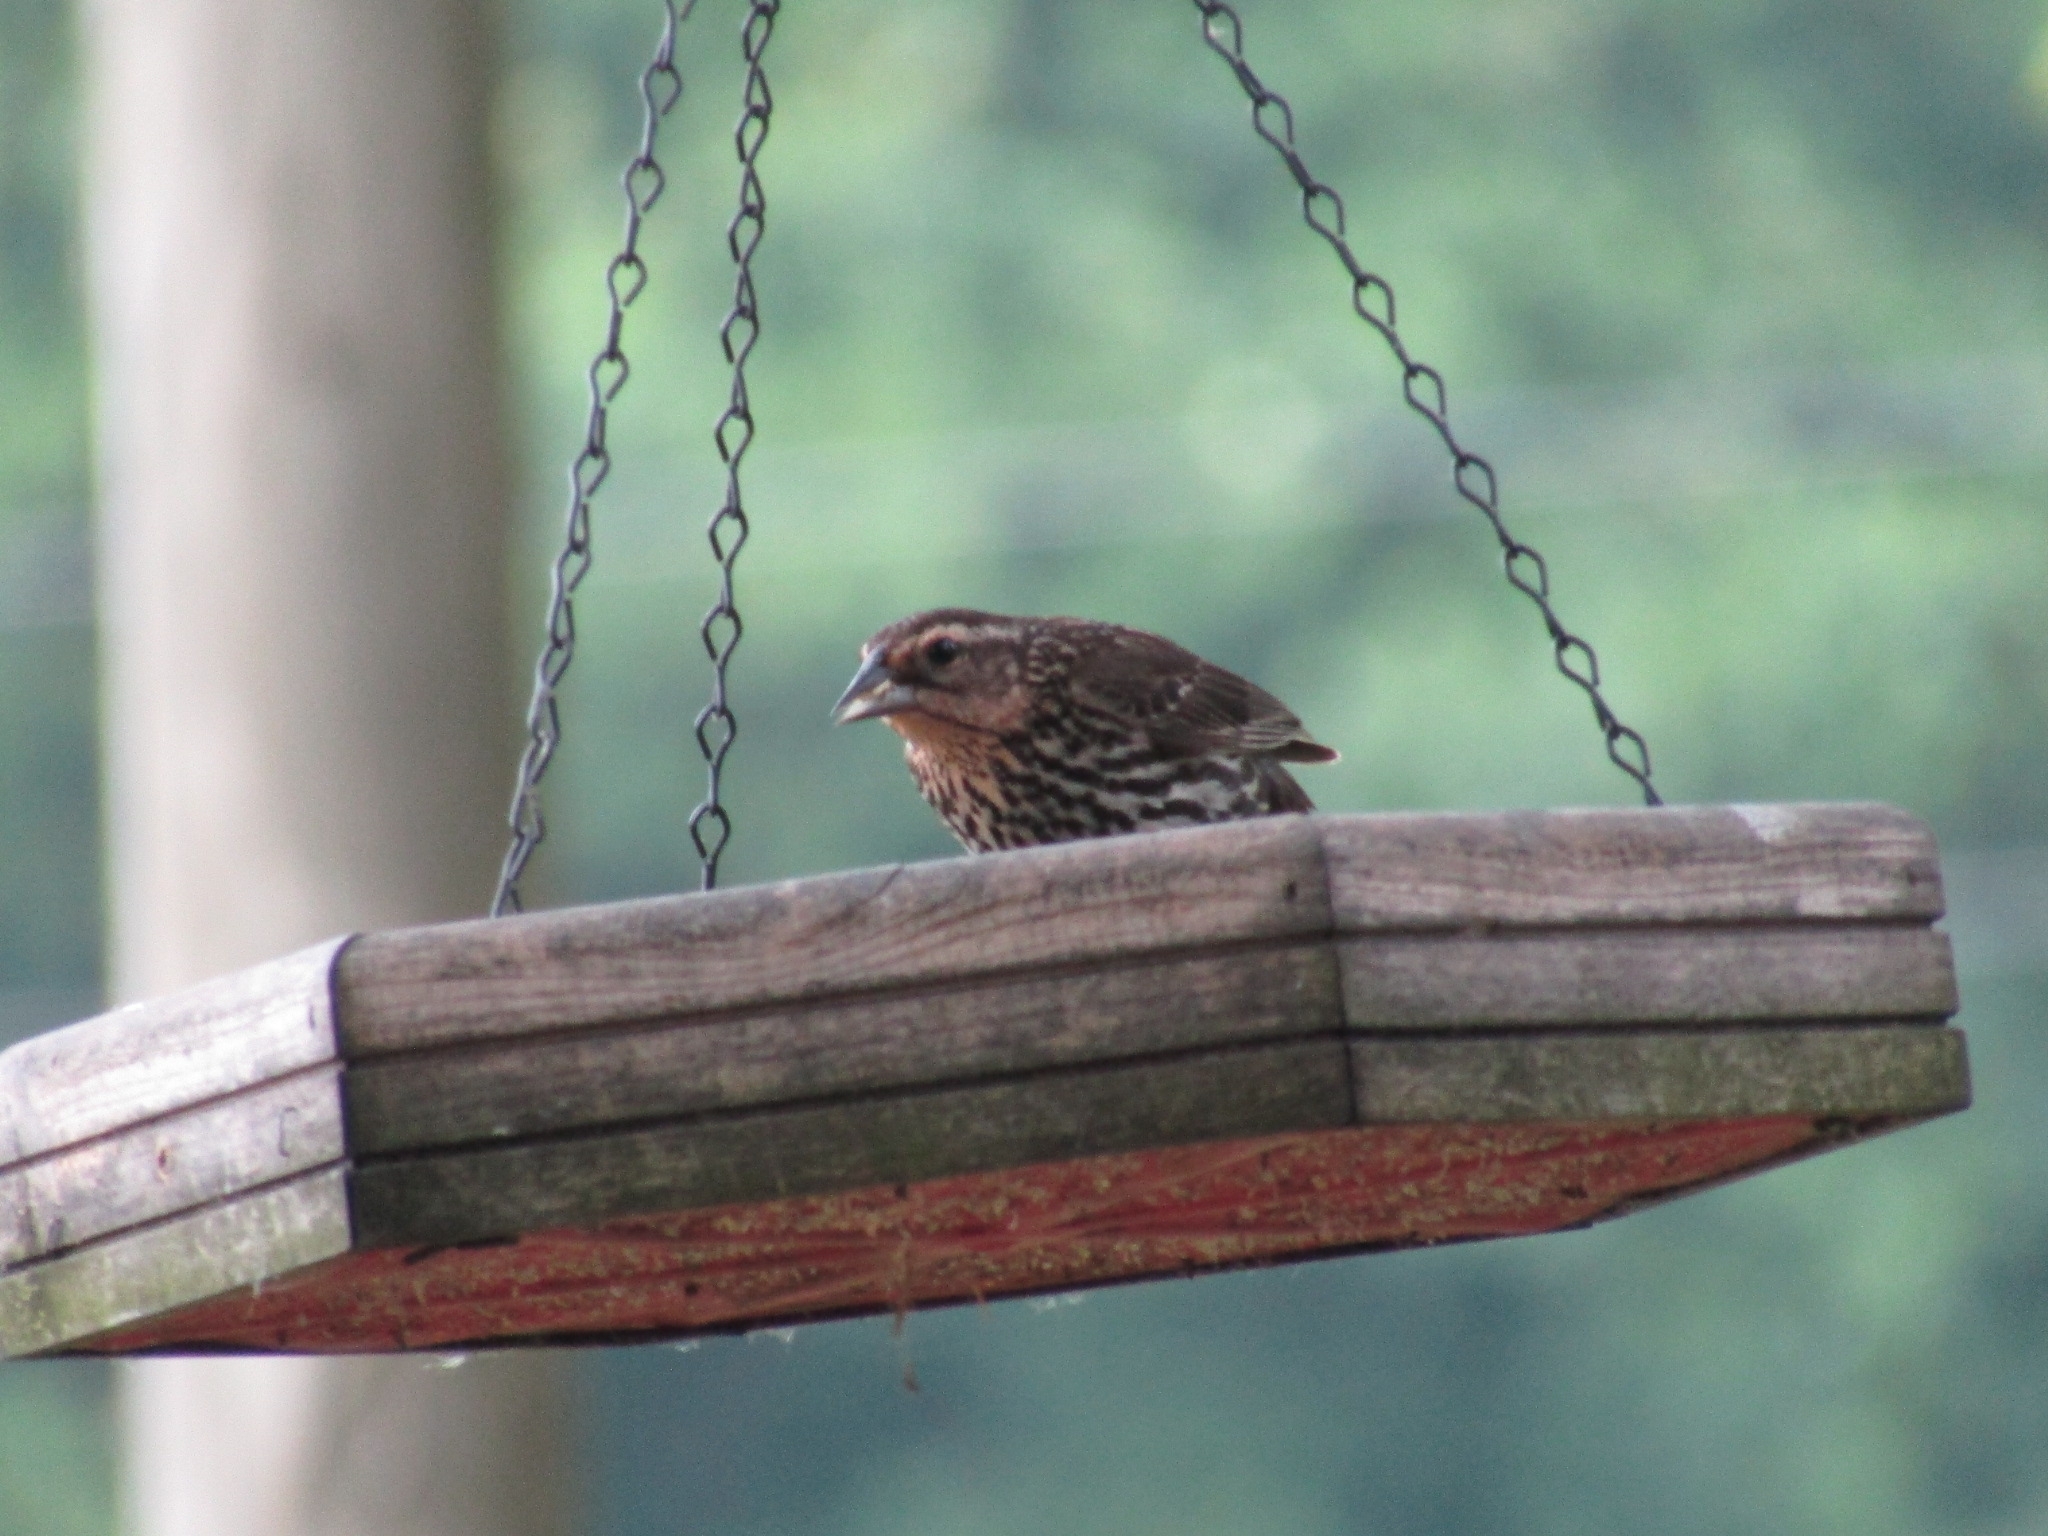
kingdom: Animalia
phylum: Chordata
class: Aves
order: Passeriformes
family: Icteridae
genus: Agelaius
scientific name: Agelaius phoeniceus
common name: Red-winged blackbird
